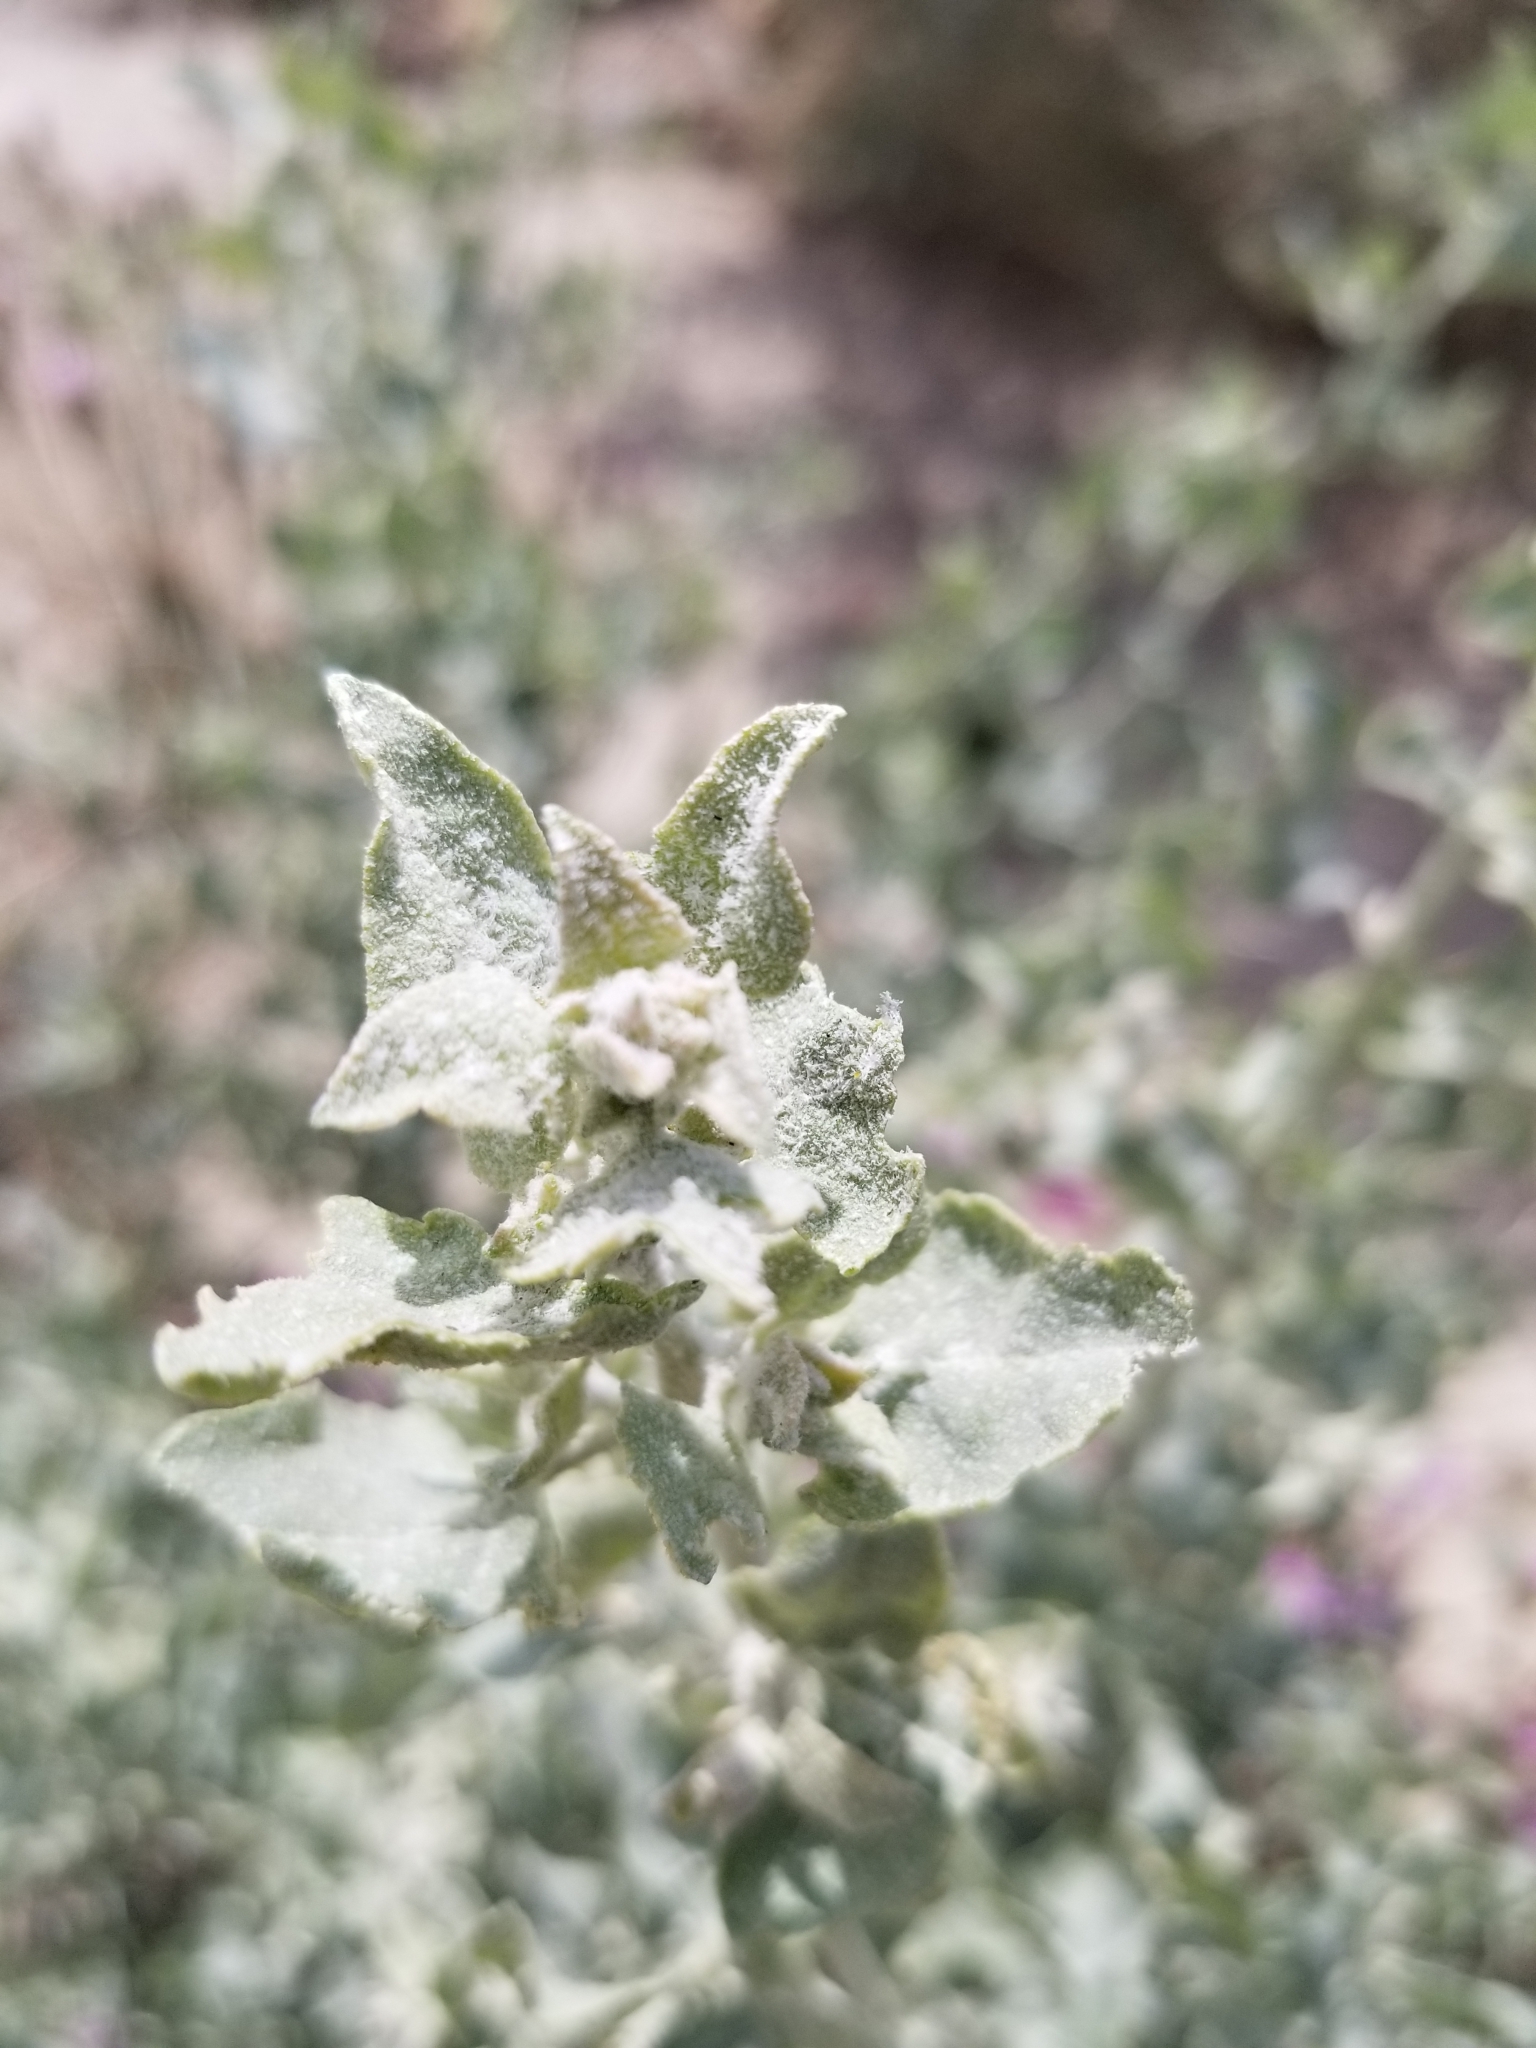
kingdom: Plantae
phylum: Tracheophyta
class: Magnoliopsida
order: Caryophyllales
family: Amaranthaceae
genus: Atriplex
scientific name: Atriplex lentiformis
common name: Big saltbush
